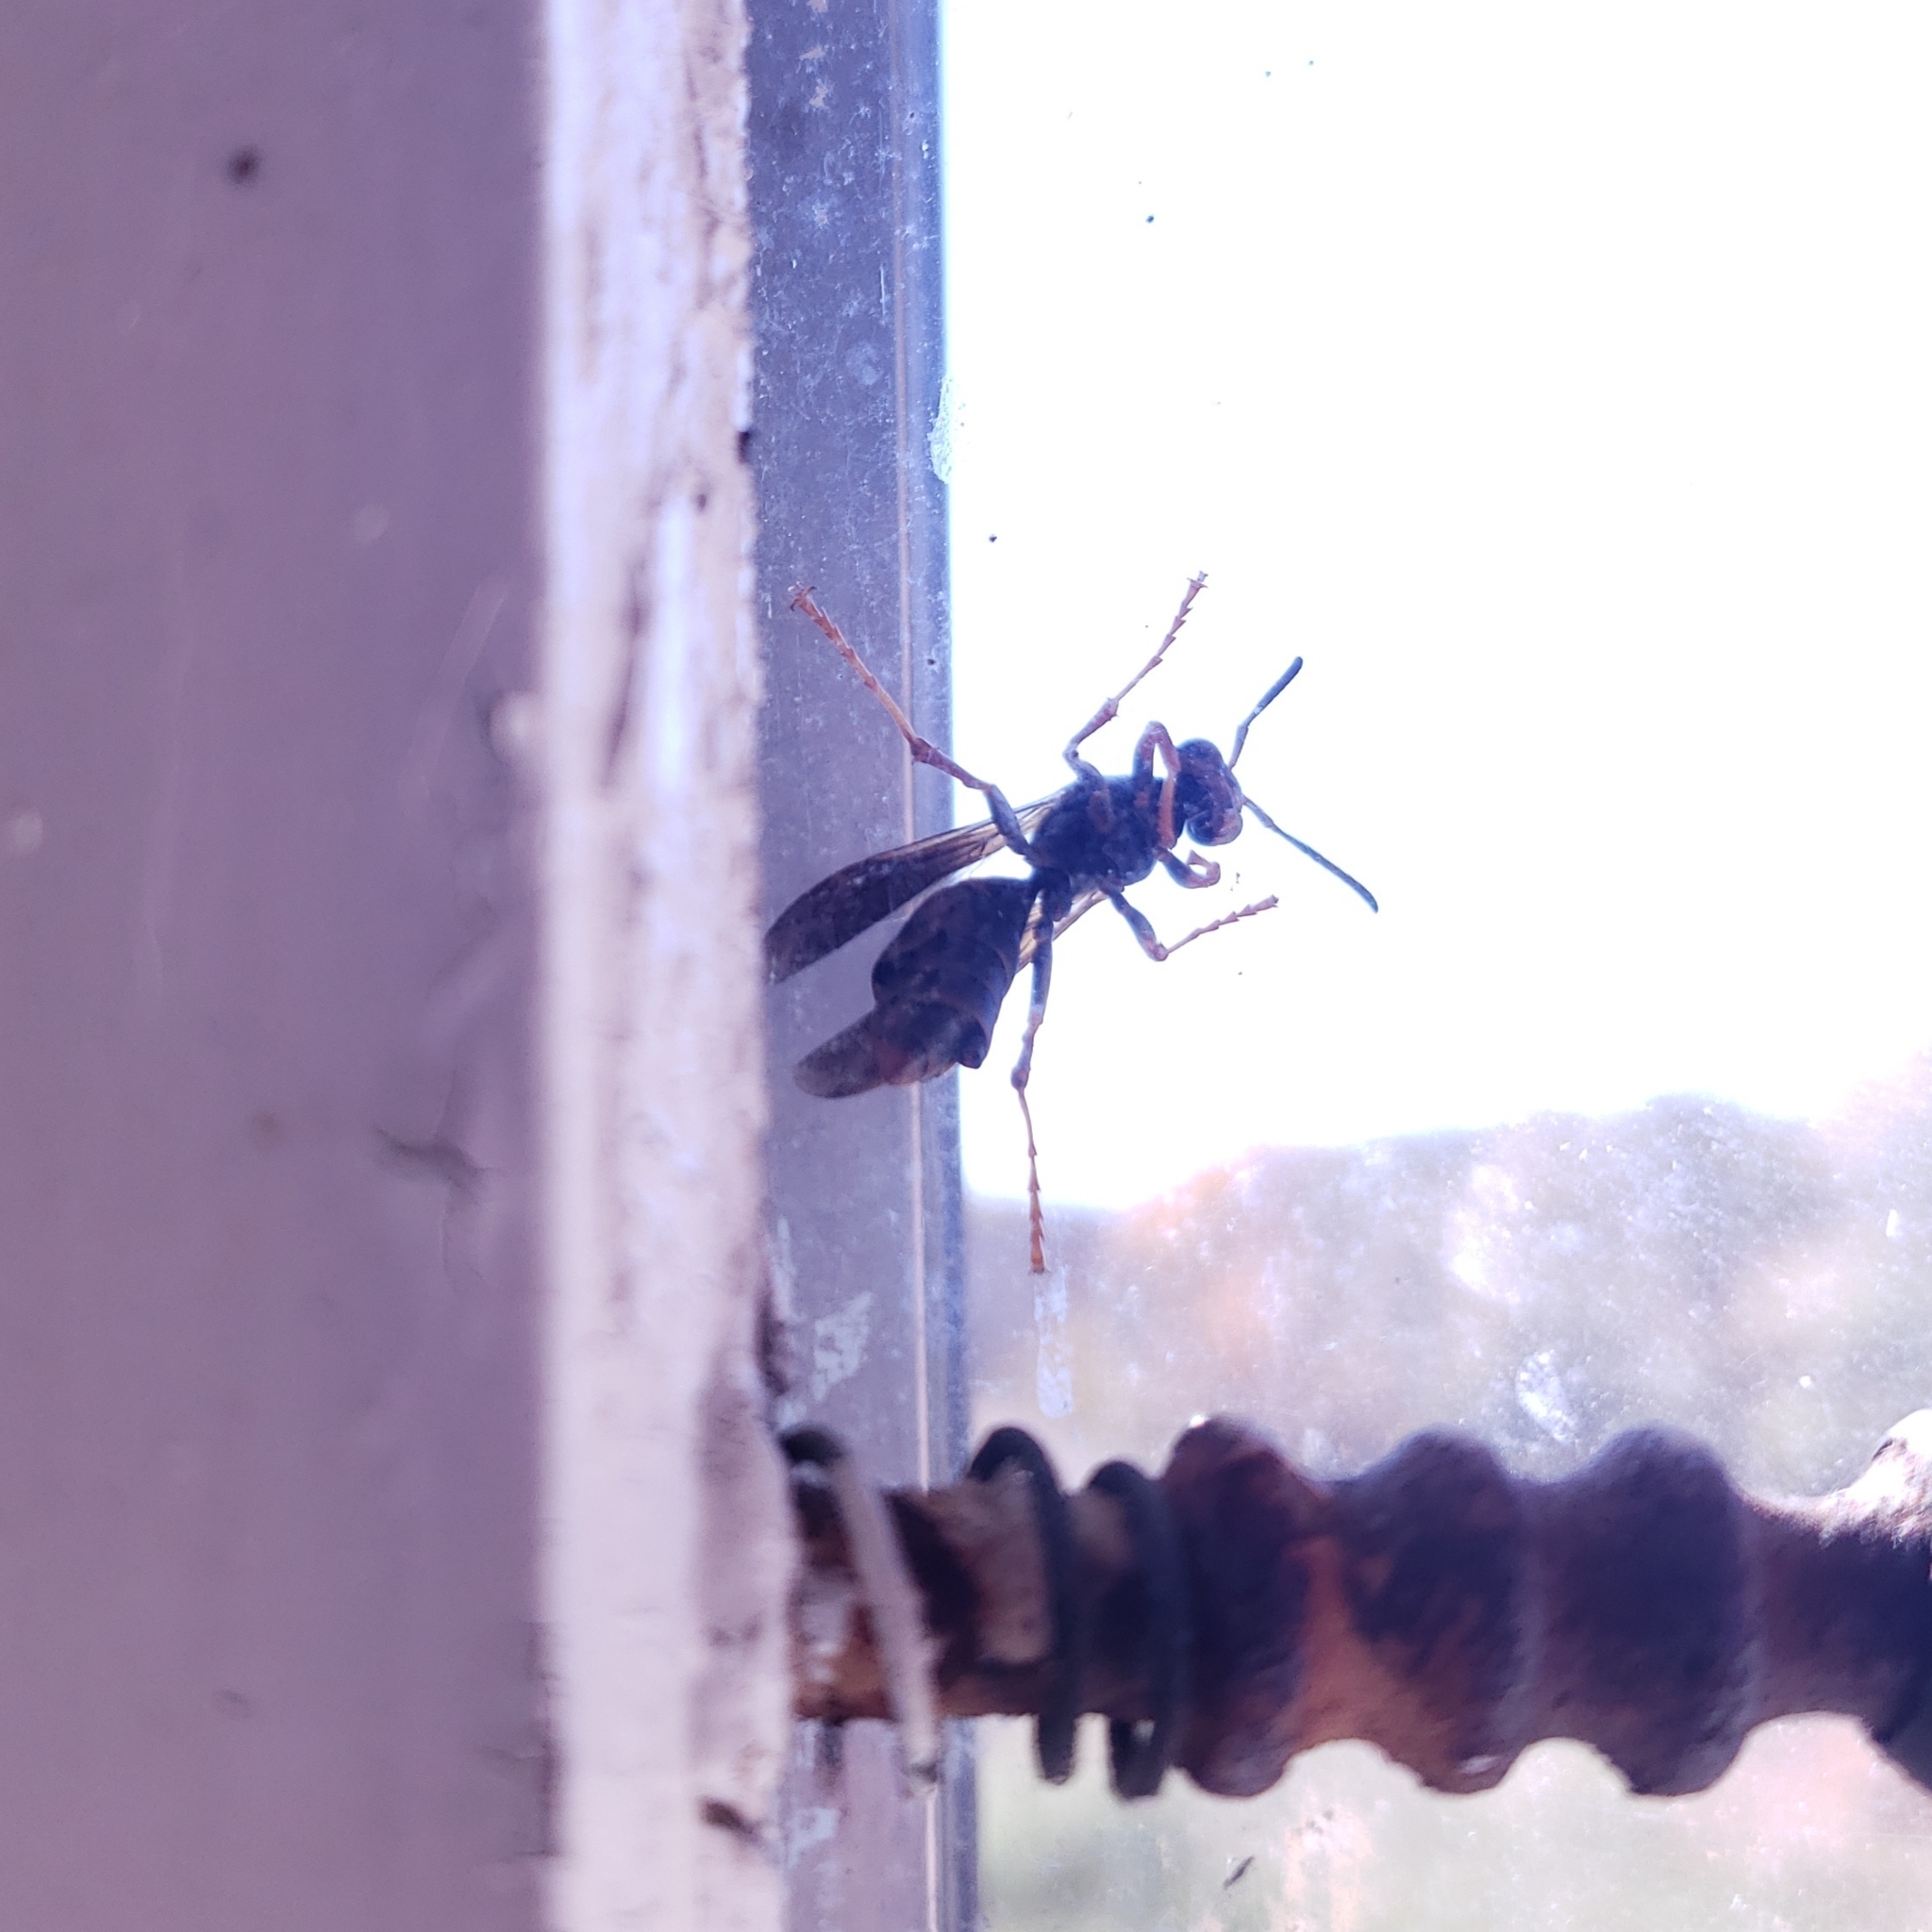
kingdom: Animalia
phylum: Arthropoda
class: Insecta
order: Strepsiptera
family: Xenidae
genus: Xenos
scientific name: Xenos pecki
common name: Twisted wing parasite
